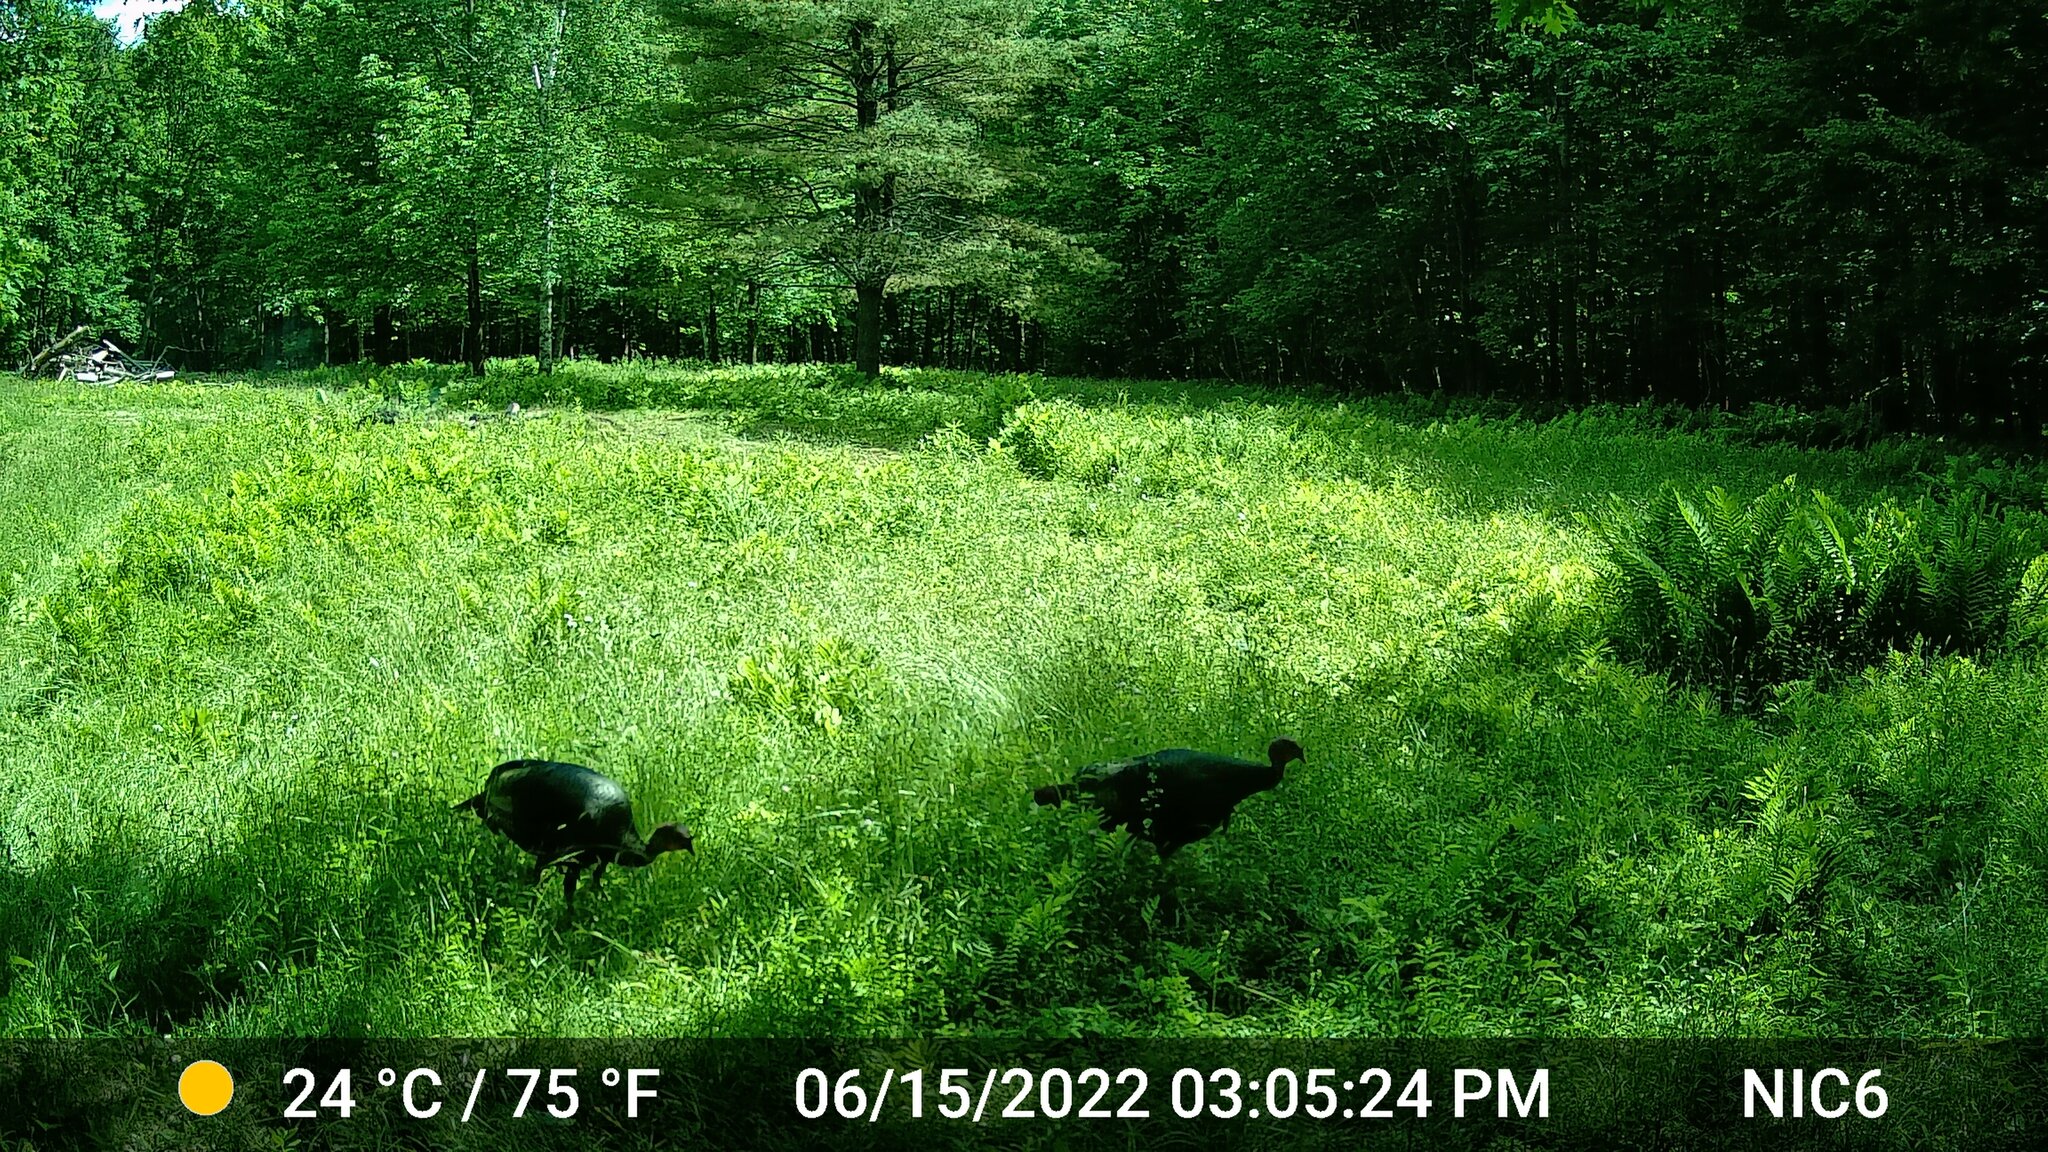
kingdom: Animalia
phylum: Chordata
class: Aves
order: Galliformes
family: Phasianidae
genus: Meleagris
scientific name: Meleagris gallopavo
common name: Wild turkey
